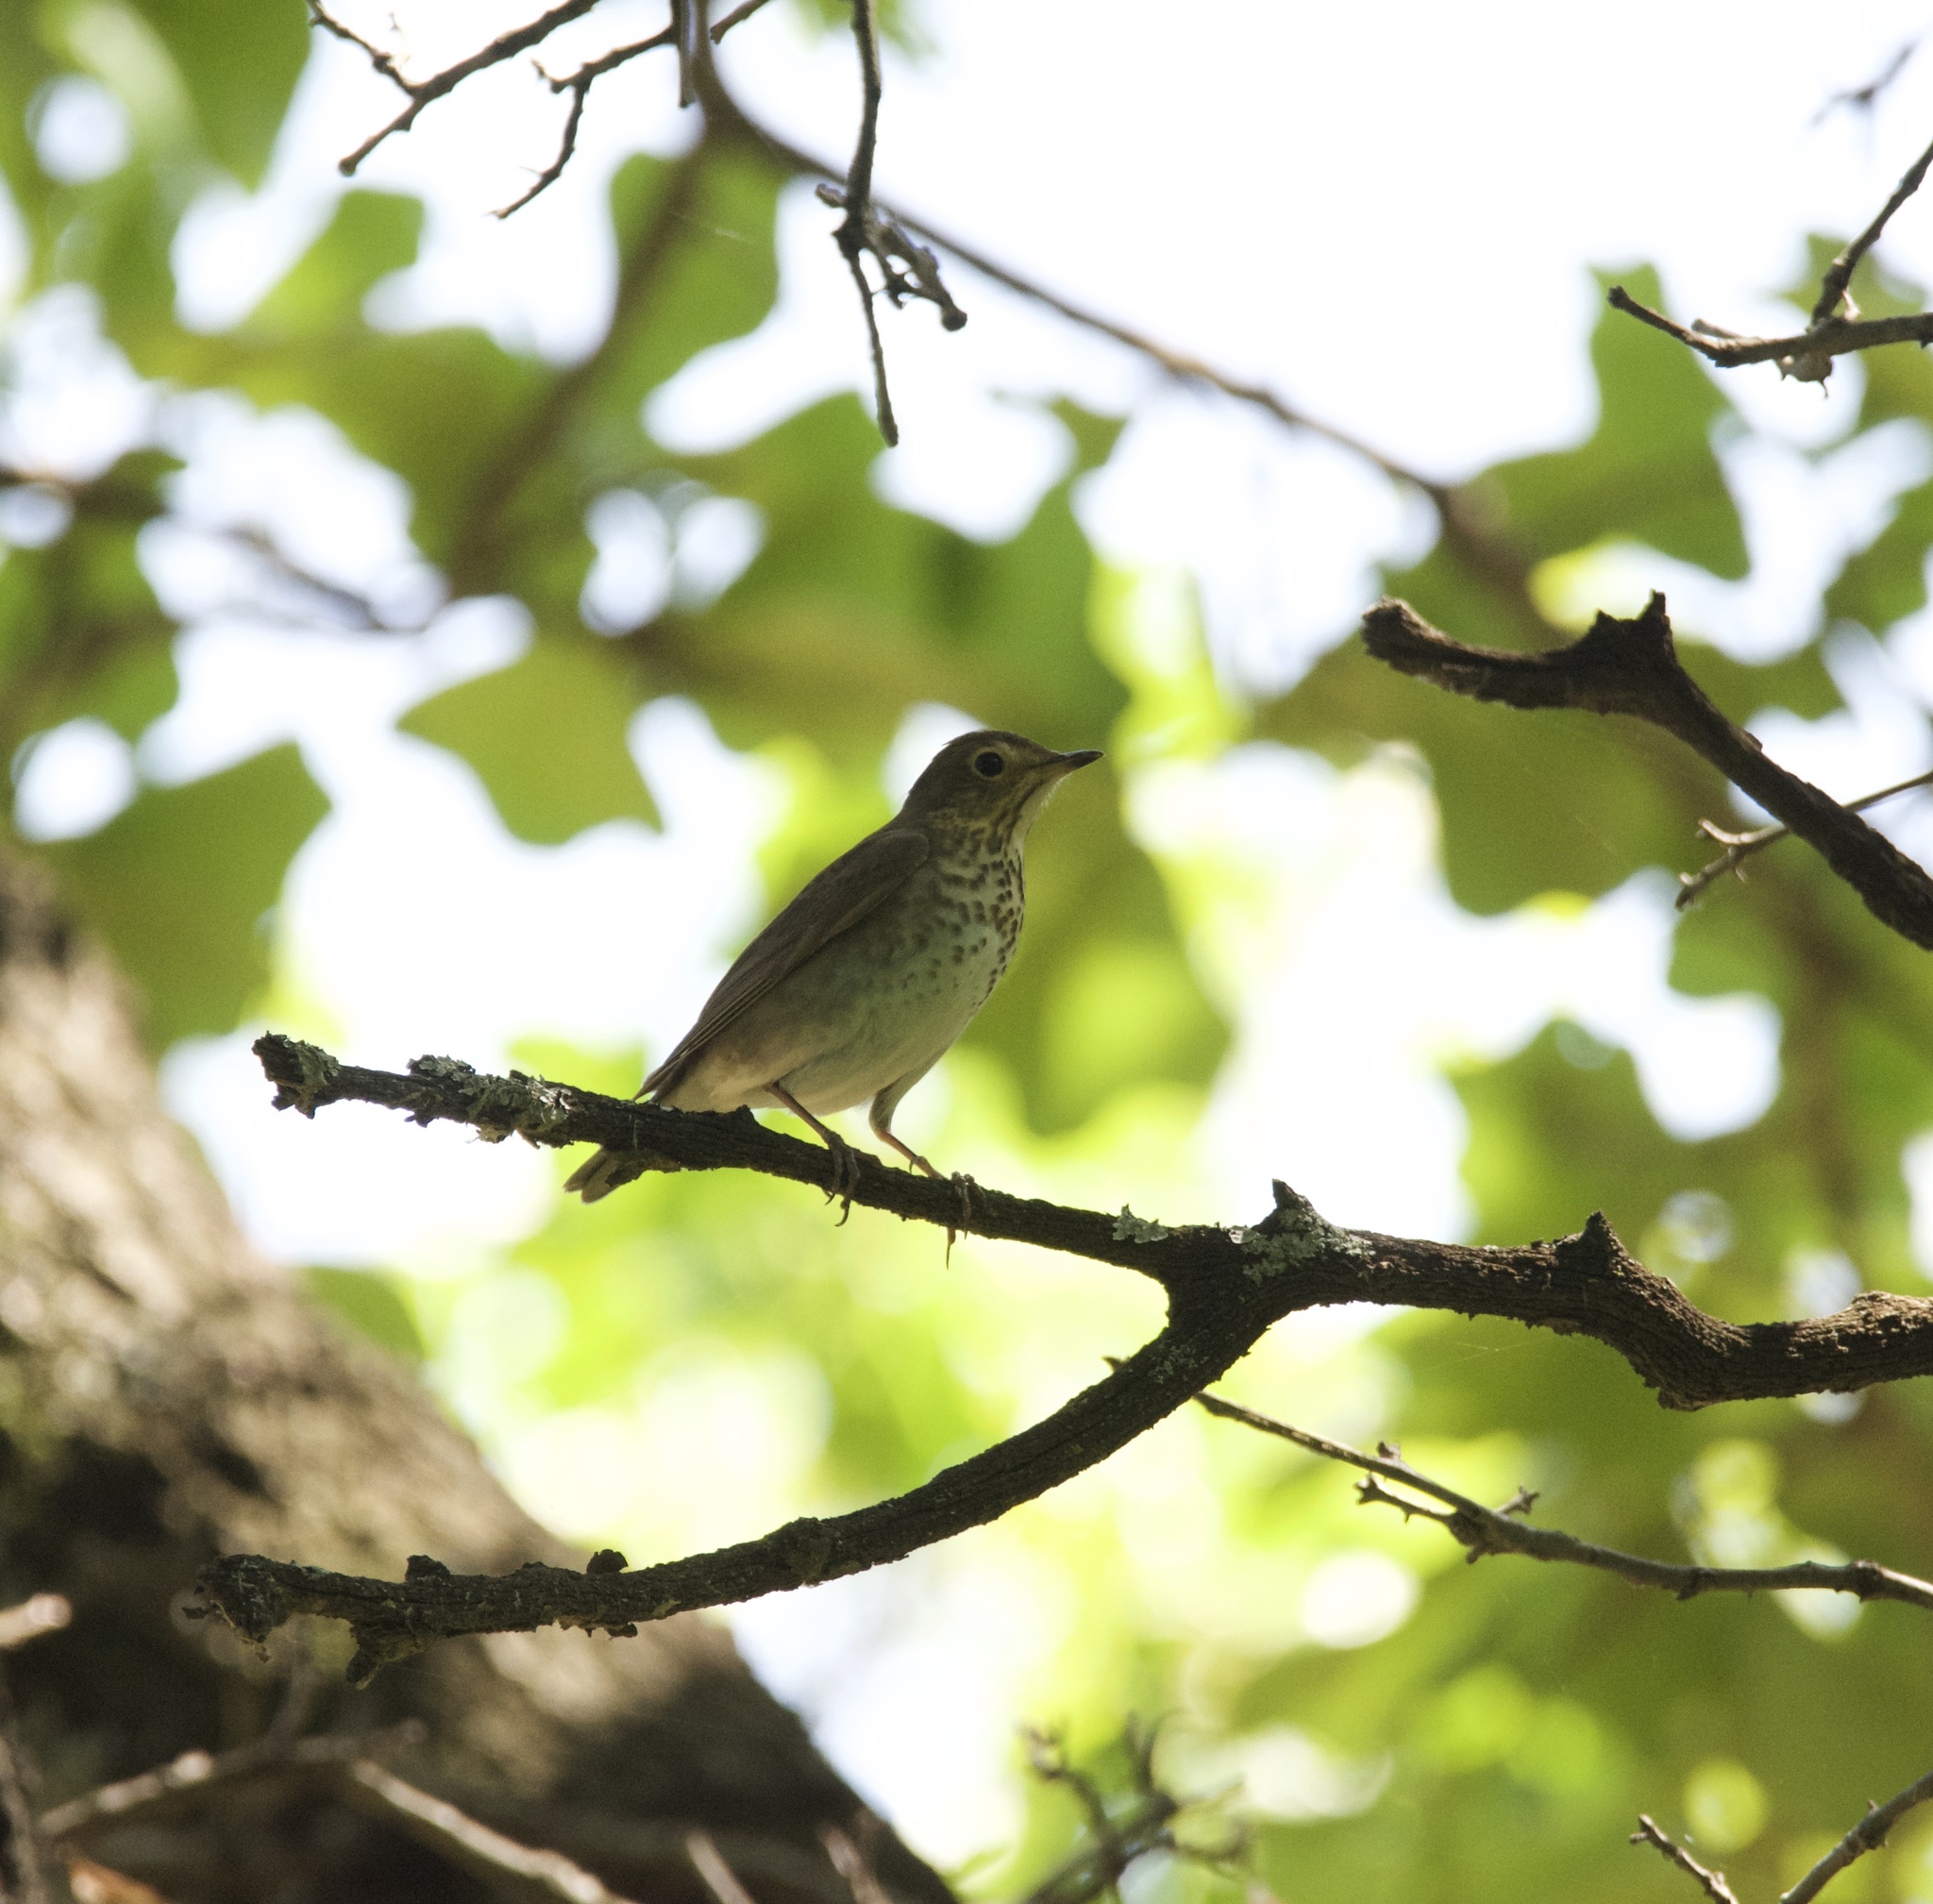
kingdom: Animalia
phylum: Chordata
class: Aves
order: Passeriformes
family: Turdidae
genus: Catharus
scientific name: Catharus ustulatus
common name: Swainson's thrush
